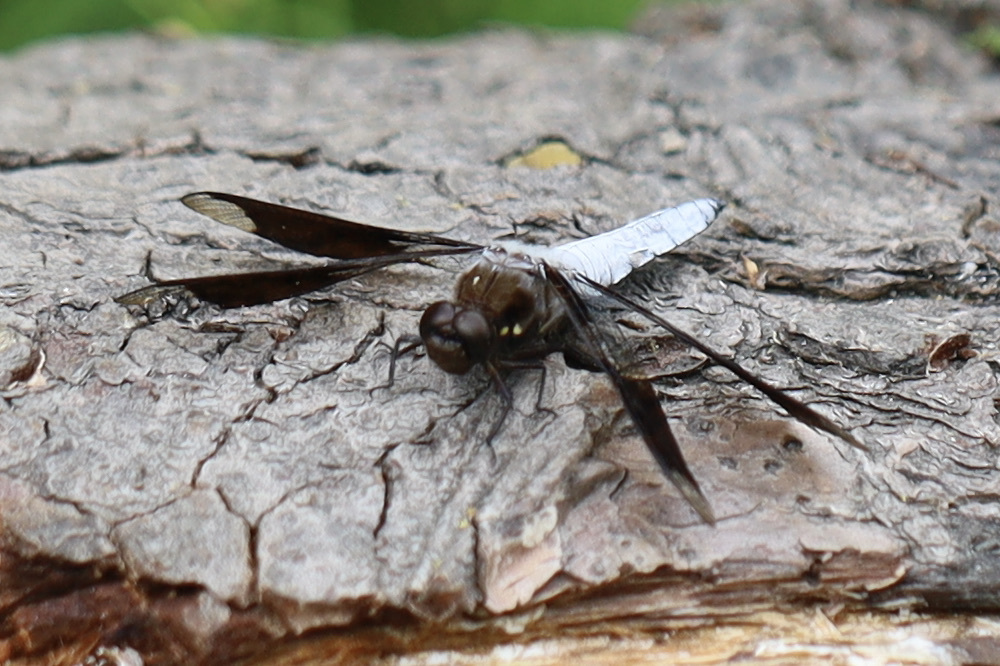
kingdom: Animalia
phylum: Arthropoda
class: Insecta
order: Odonata
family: Libellulidae
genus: Plathemis
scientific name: Plathemis lydia
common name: Common whitetail
